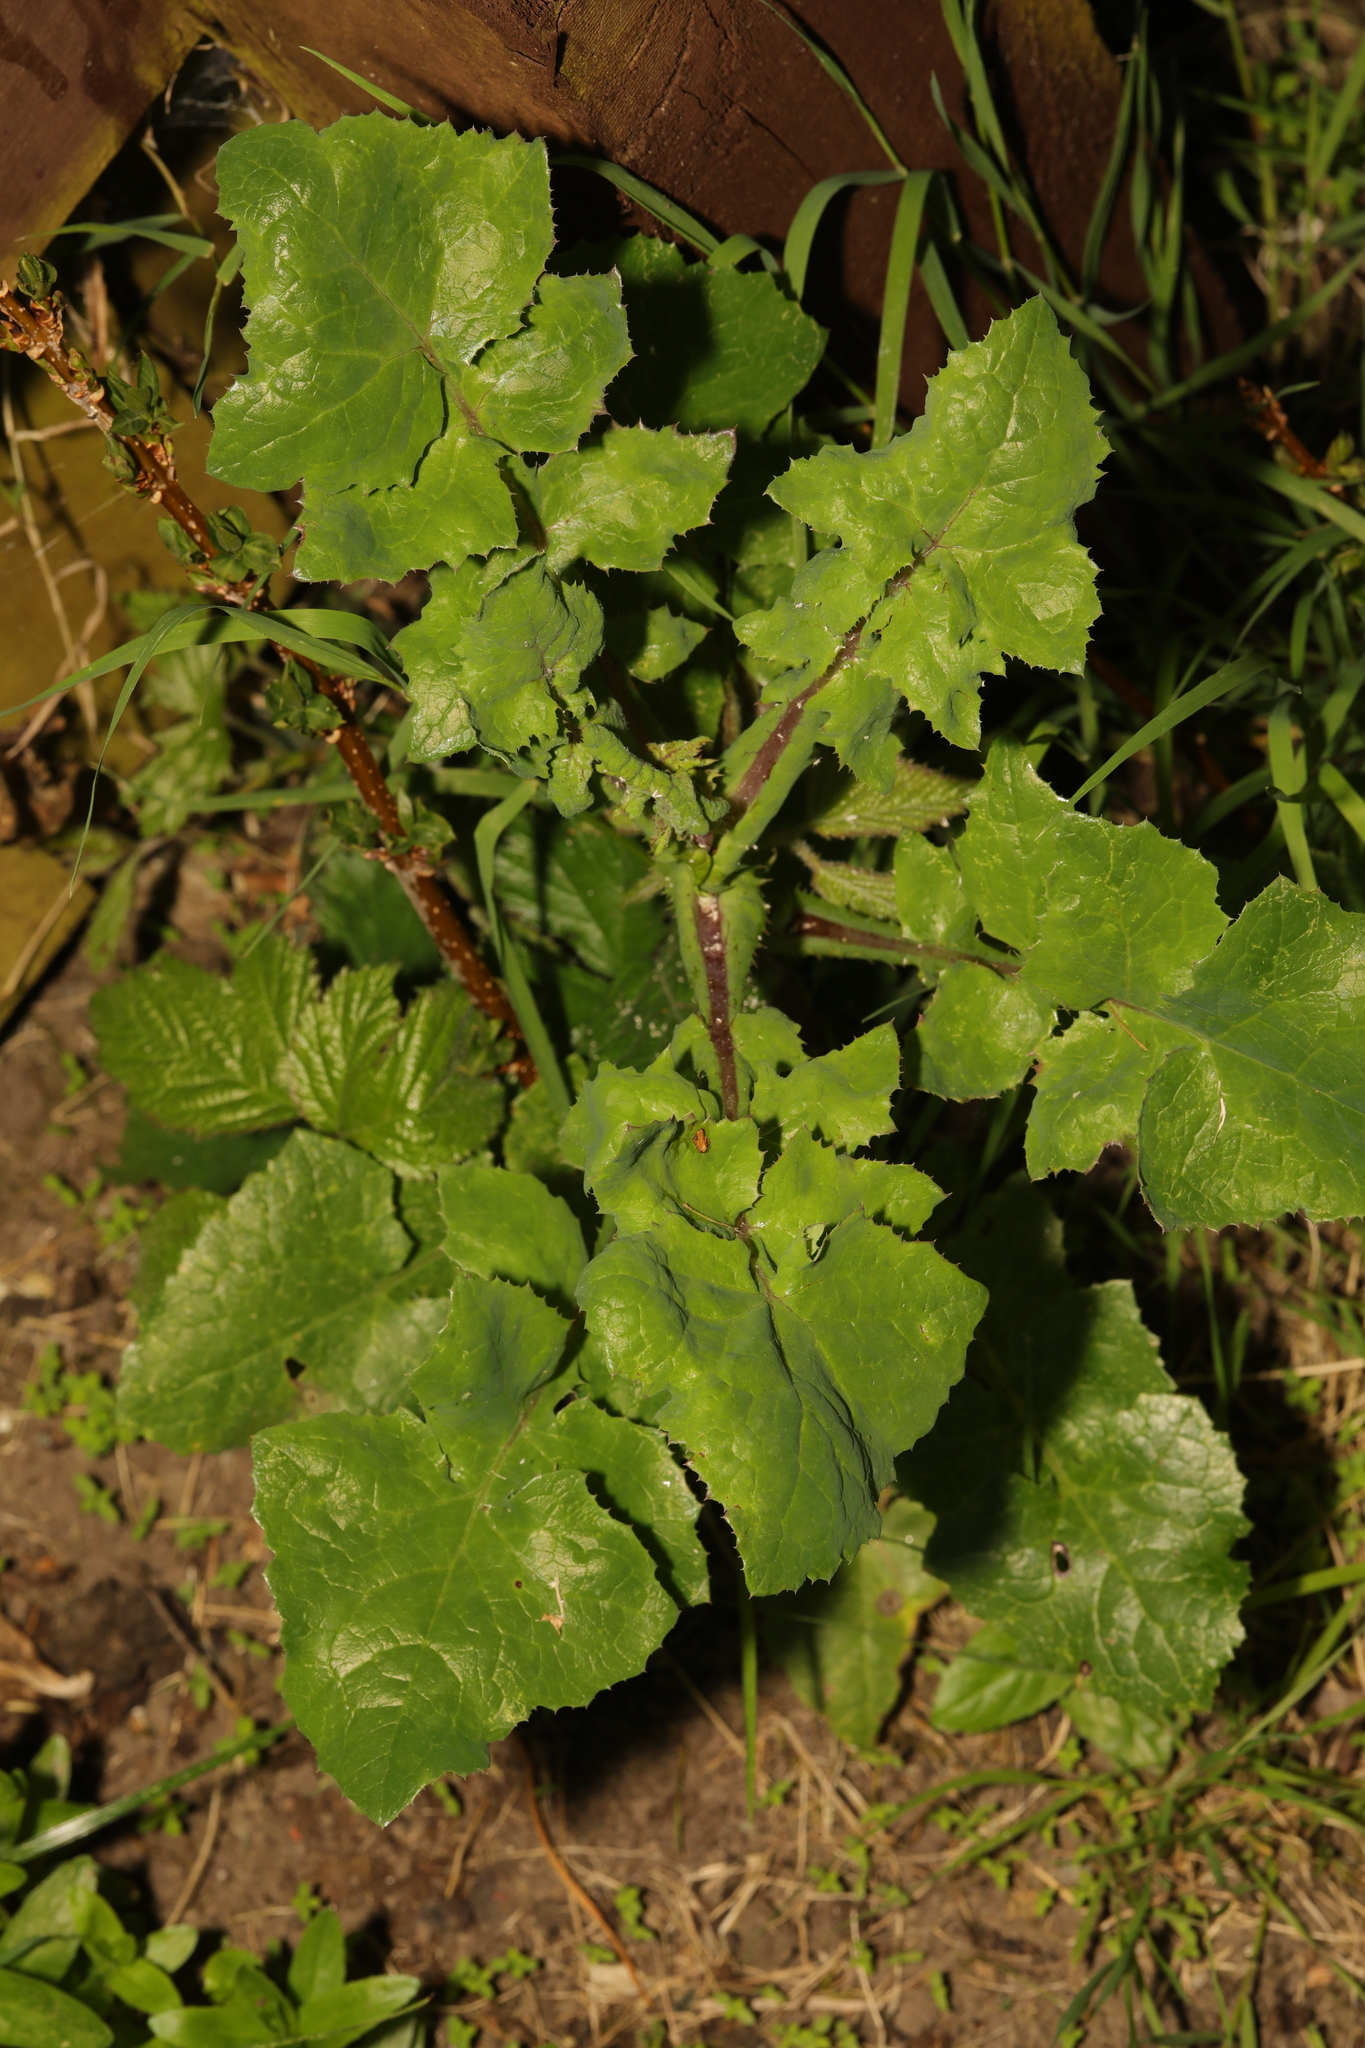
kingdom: Plantae
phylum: Tracheophyta
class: Magnoliopsida
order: Asterales
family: Asteraceae
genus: Sonchus
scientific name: Sonchus oleraceus
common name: Common sowthistle
